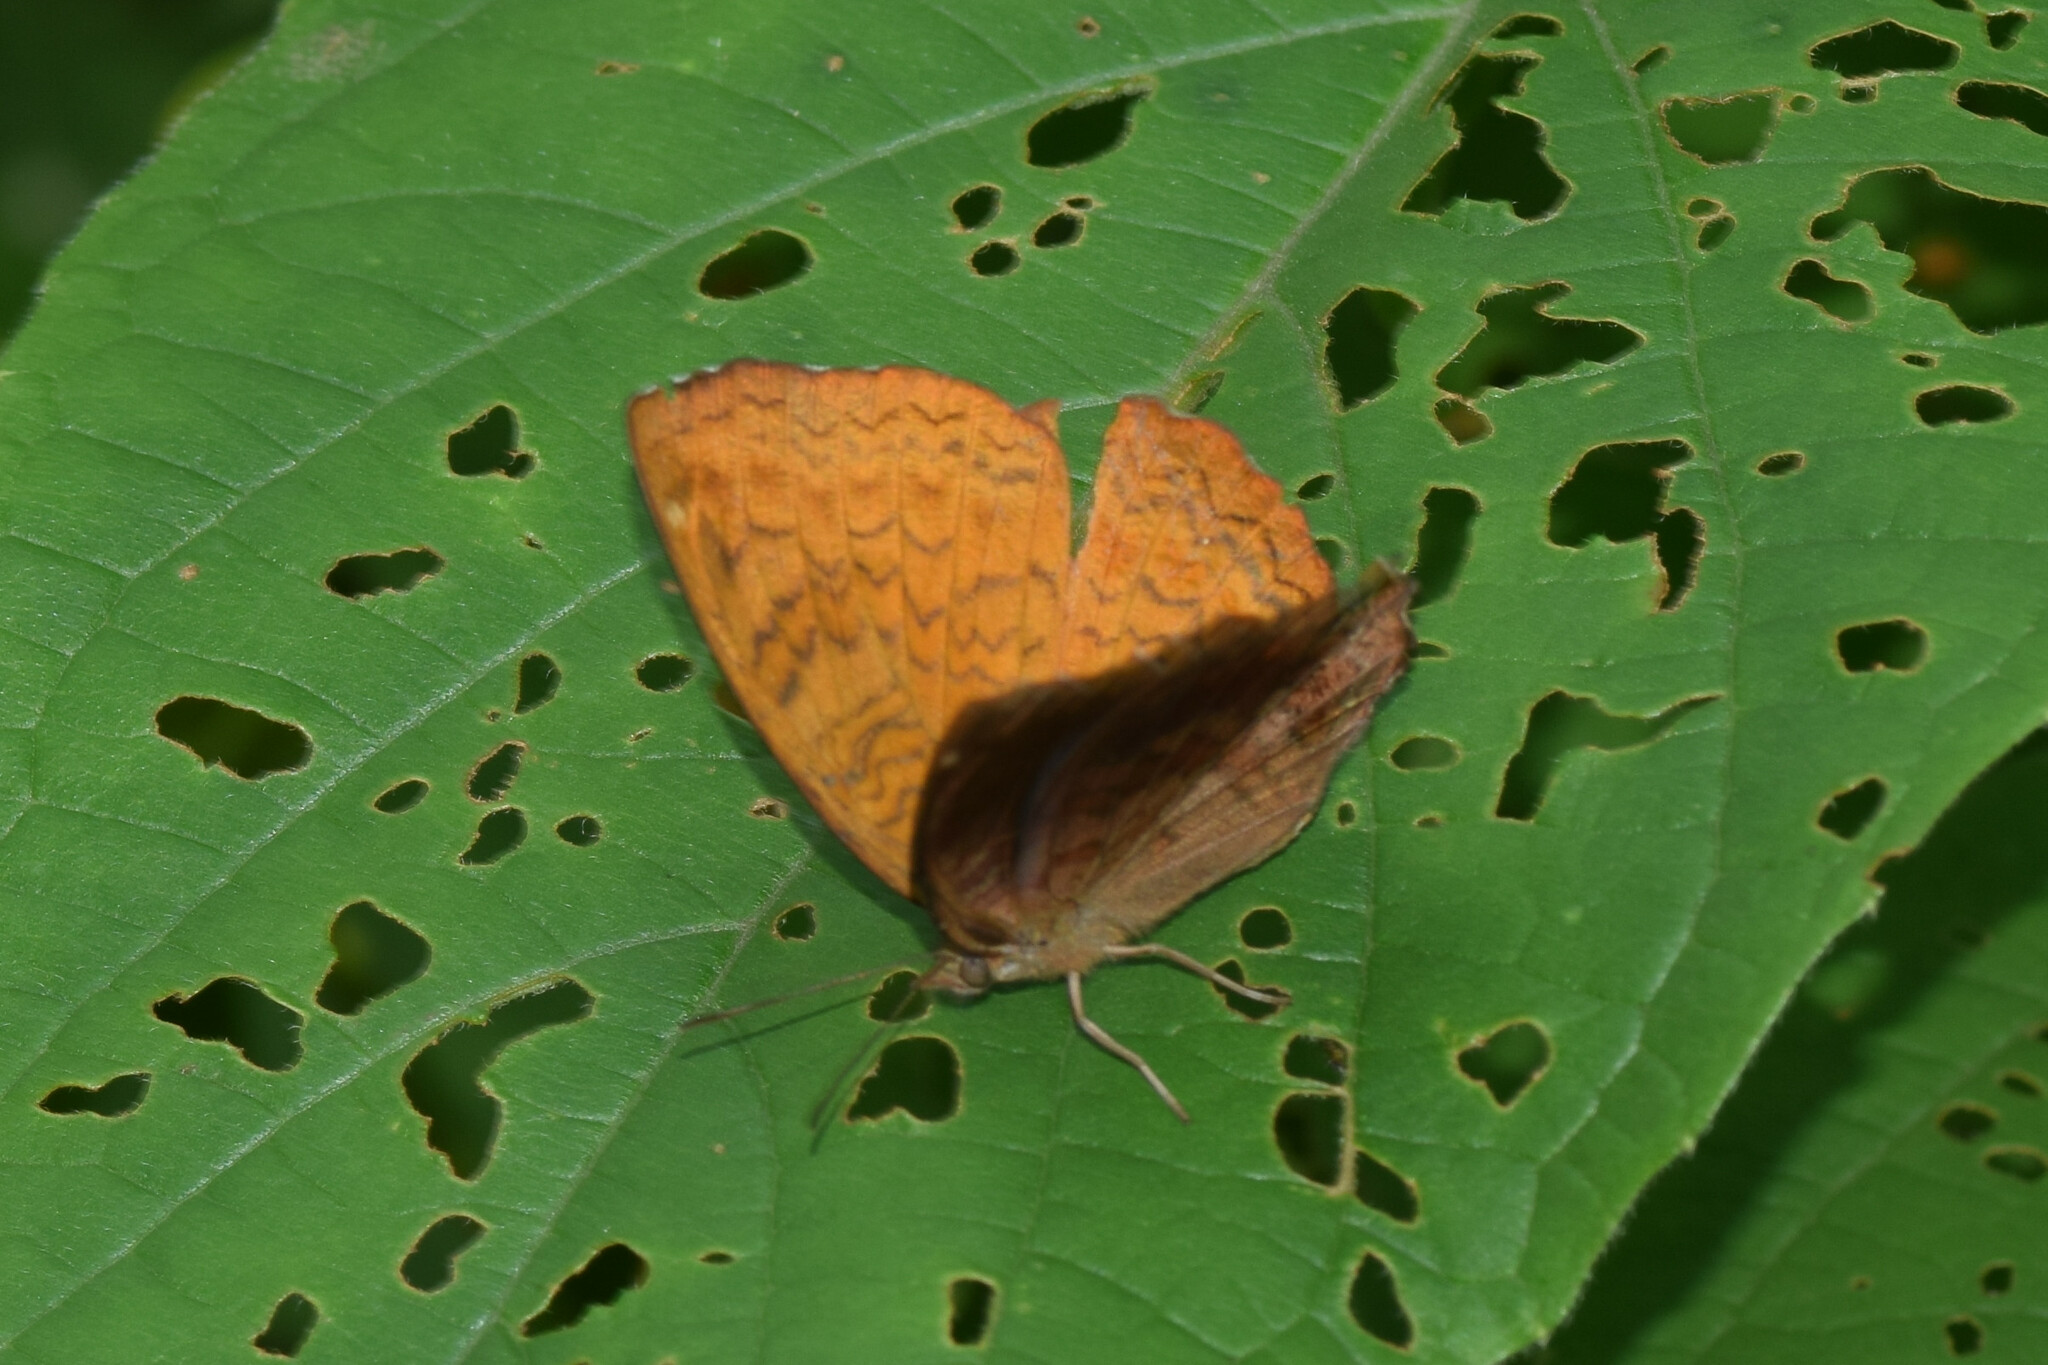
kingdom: Animalia
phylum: Arthropoda
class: Insecta
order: Lepidoptera
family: Nymphalidae
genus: Ariadne
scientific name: Ariadne merione
